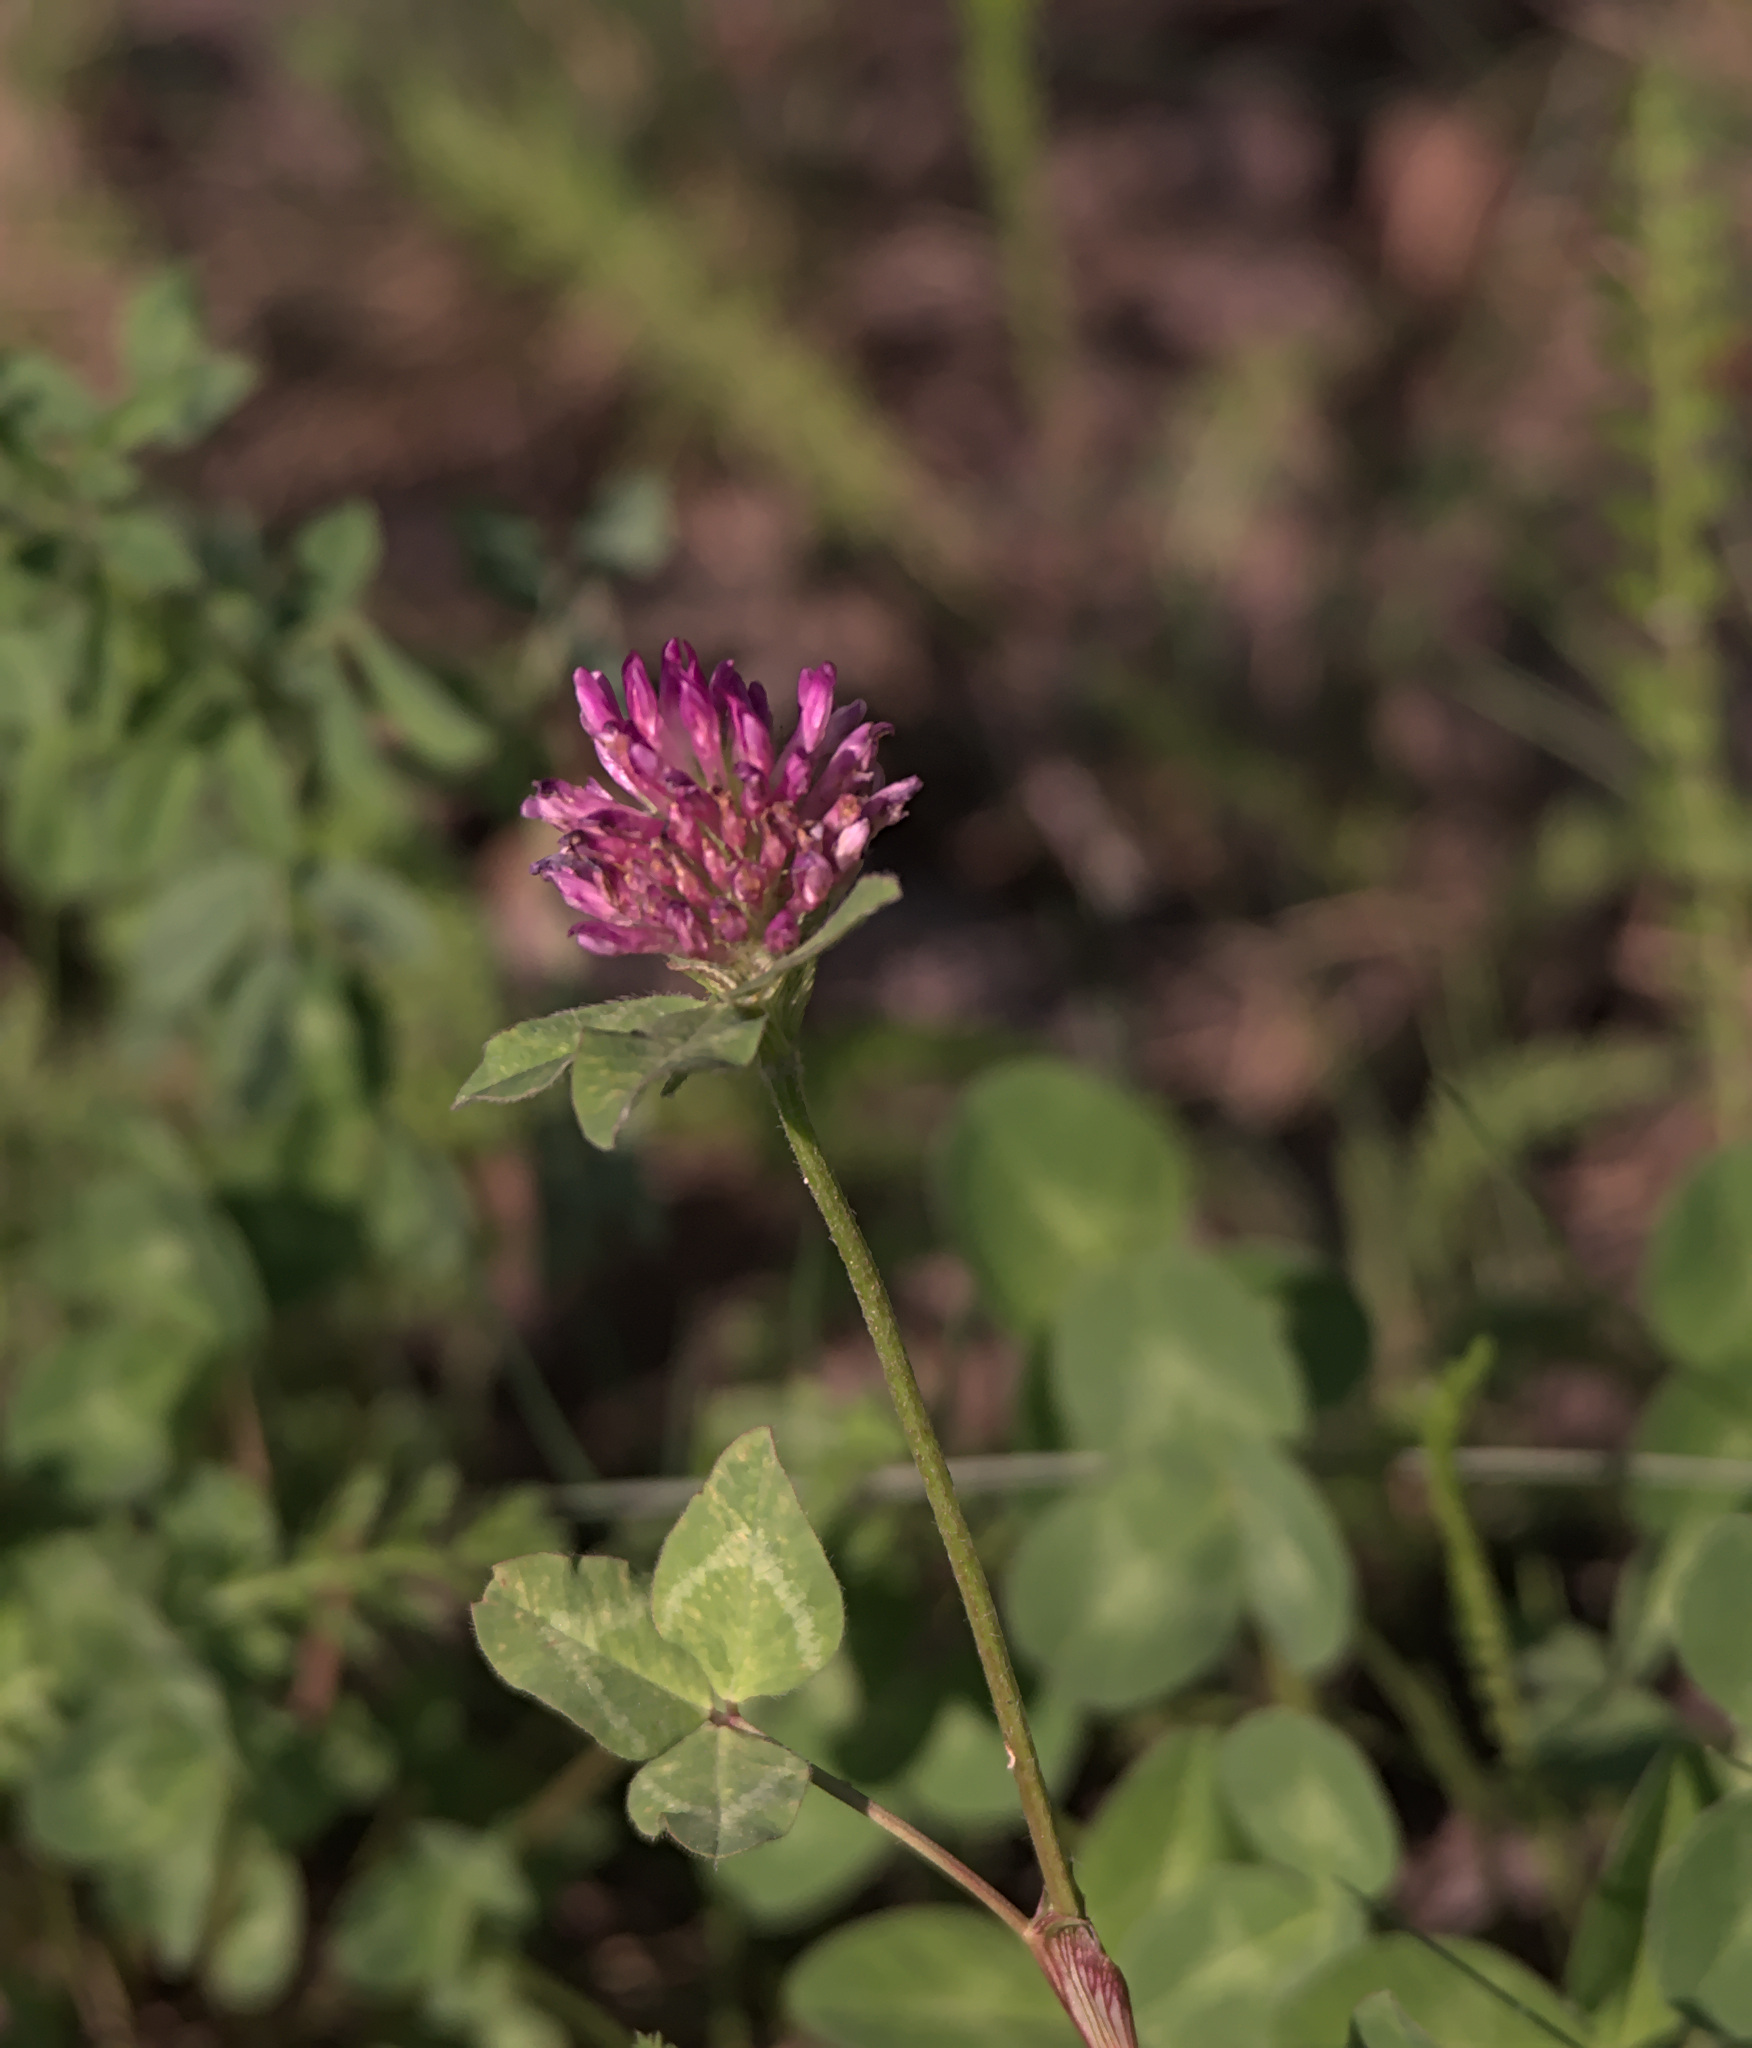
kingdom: Plantae
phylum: Tracheophyta
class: Magnoliopsida
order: Fabales
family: Fabaceae
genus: Trifolium
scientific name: Trifolium pratense
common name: Red clover
